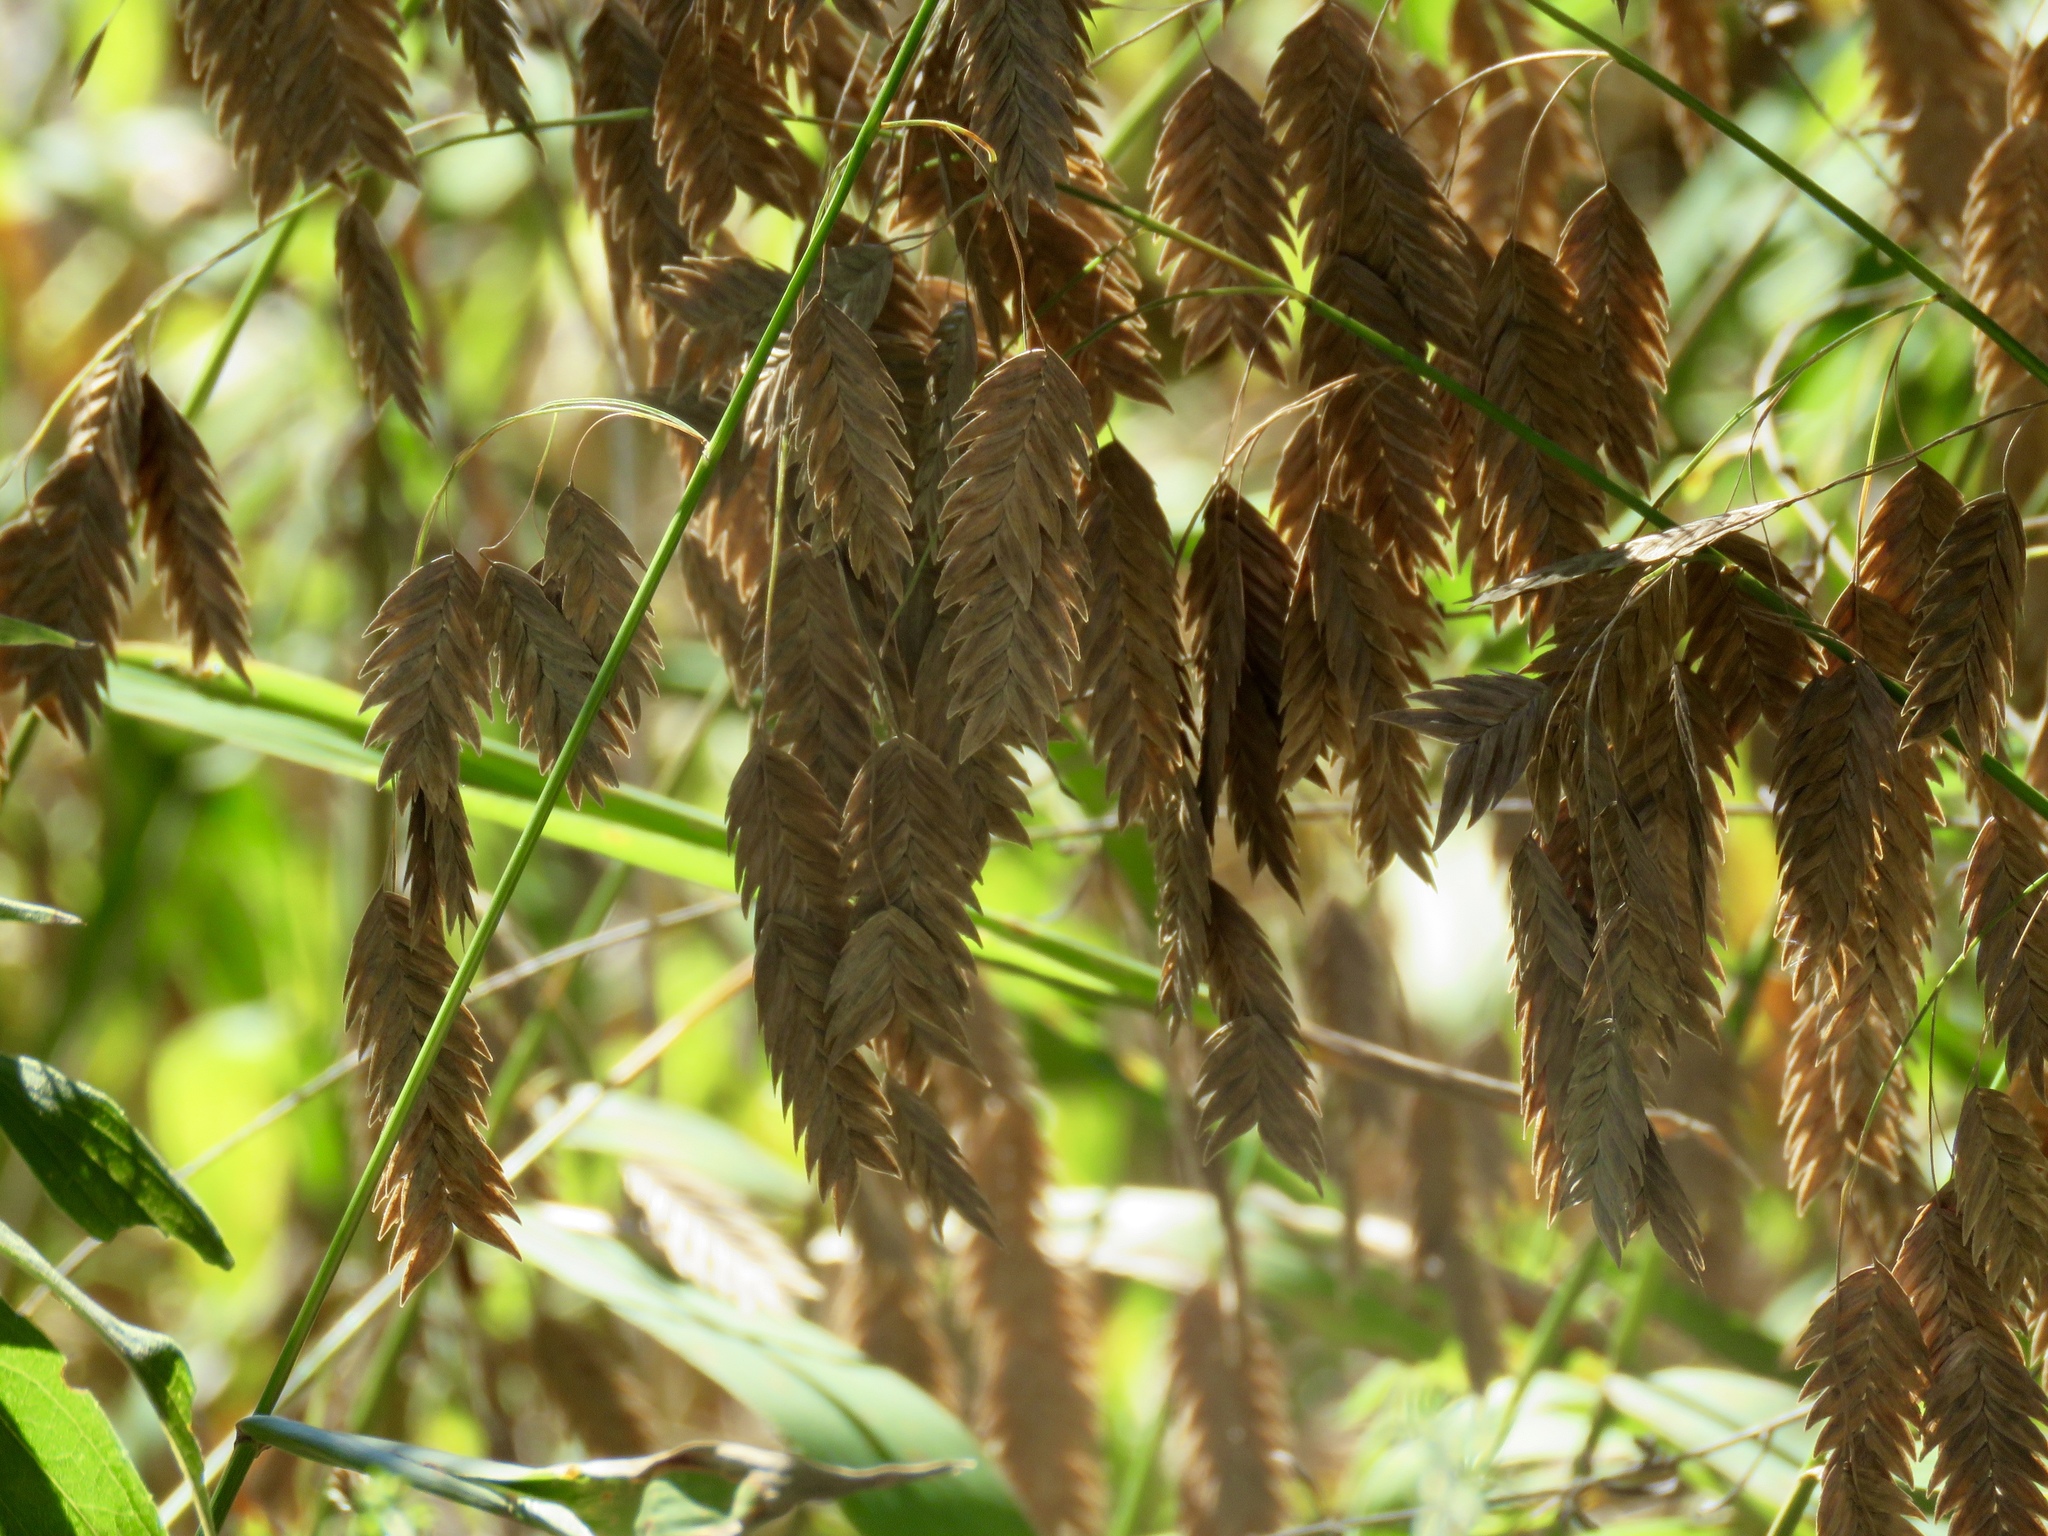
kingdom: Plantae
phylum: Tracheophyta
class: Liliopsida
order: Poales
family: Poaceae
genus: Chasmanthium
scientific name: Chasmanthium latifolium
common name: Broad-leaved chasmanthium
